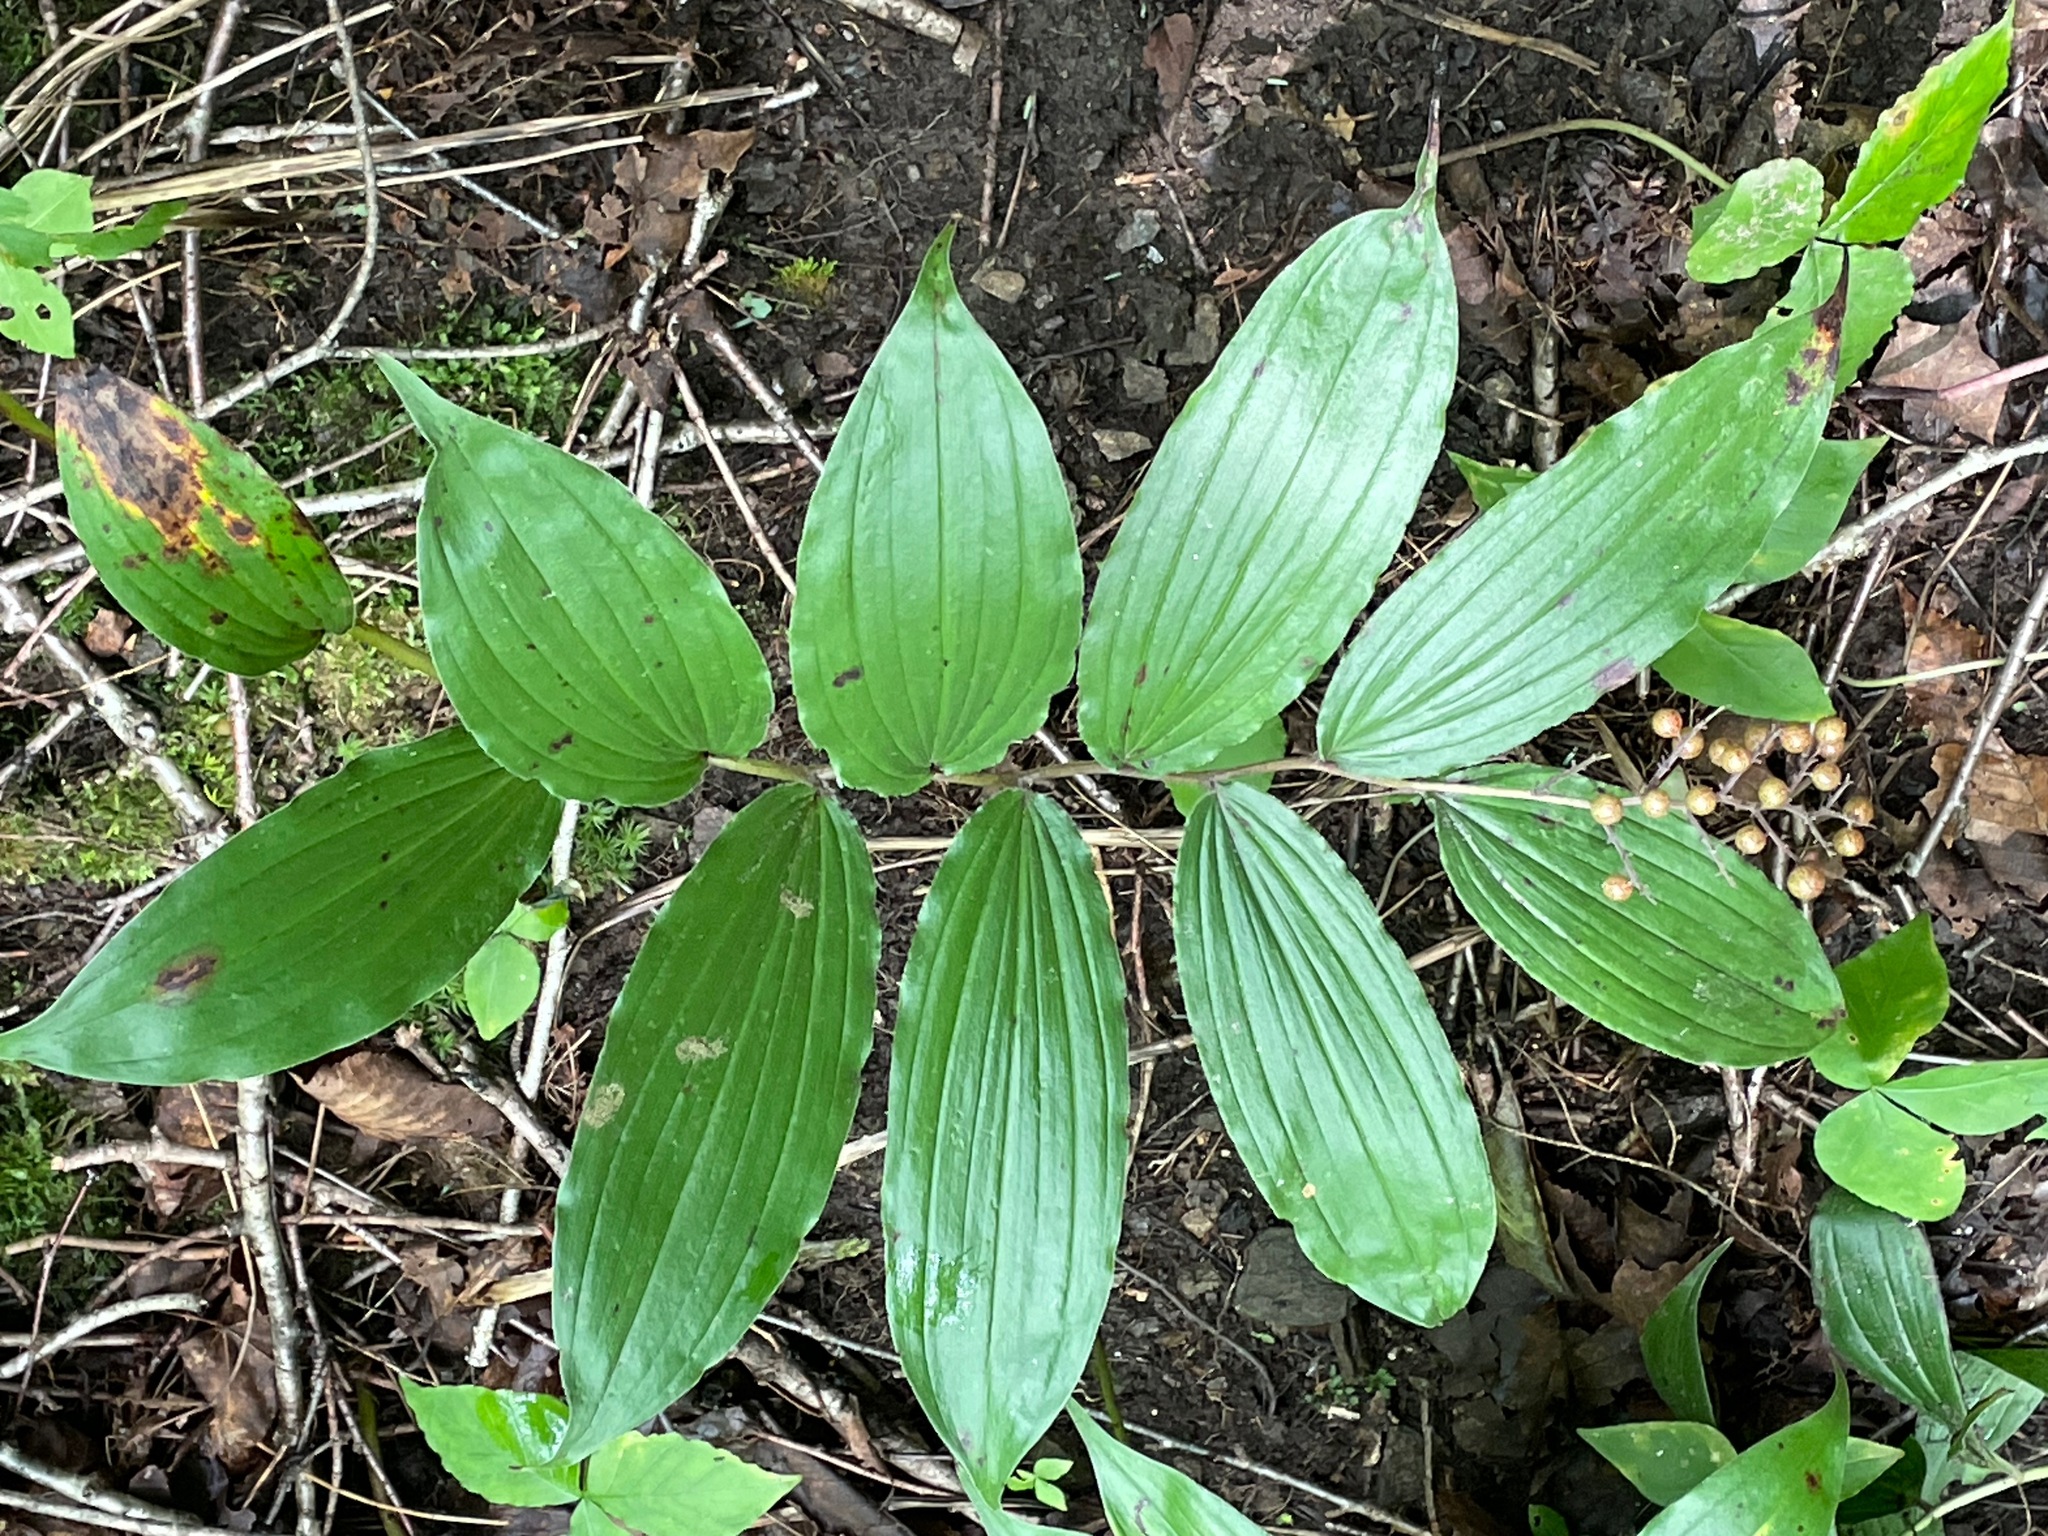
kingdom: Plantae
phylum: Tracheophyta
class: Liliopsida
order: Asparagales
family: Asparagaceae
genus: Maianthemum
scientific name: Maianthemum racemosum
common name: False spikenard
